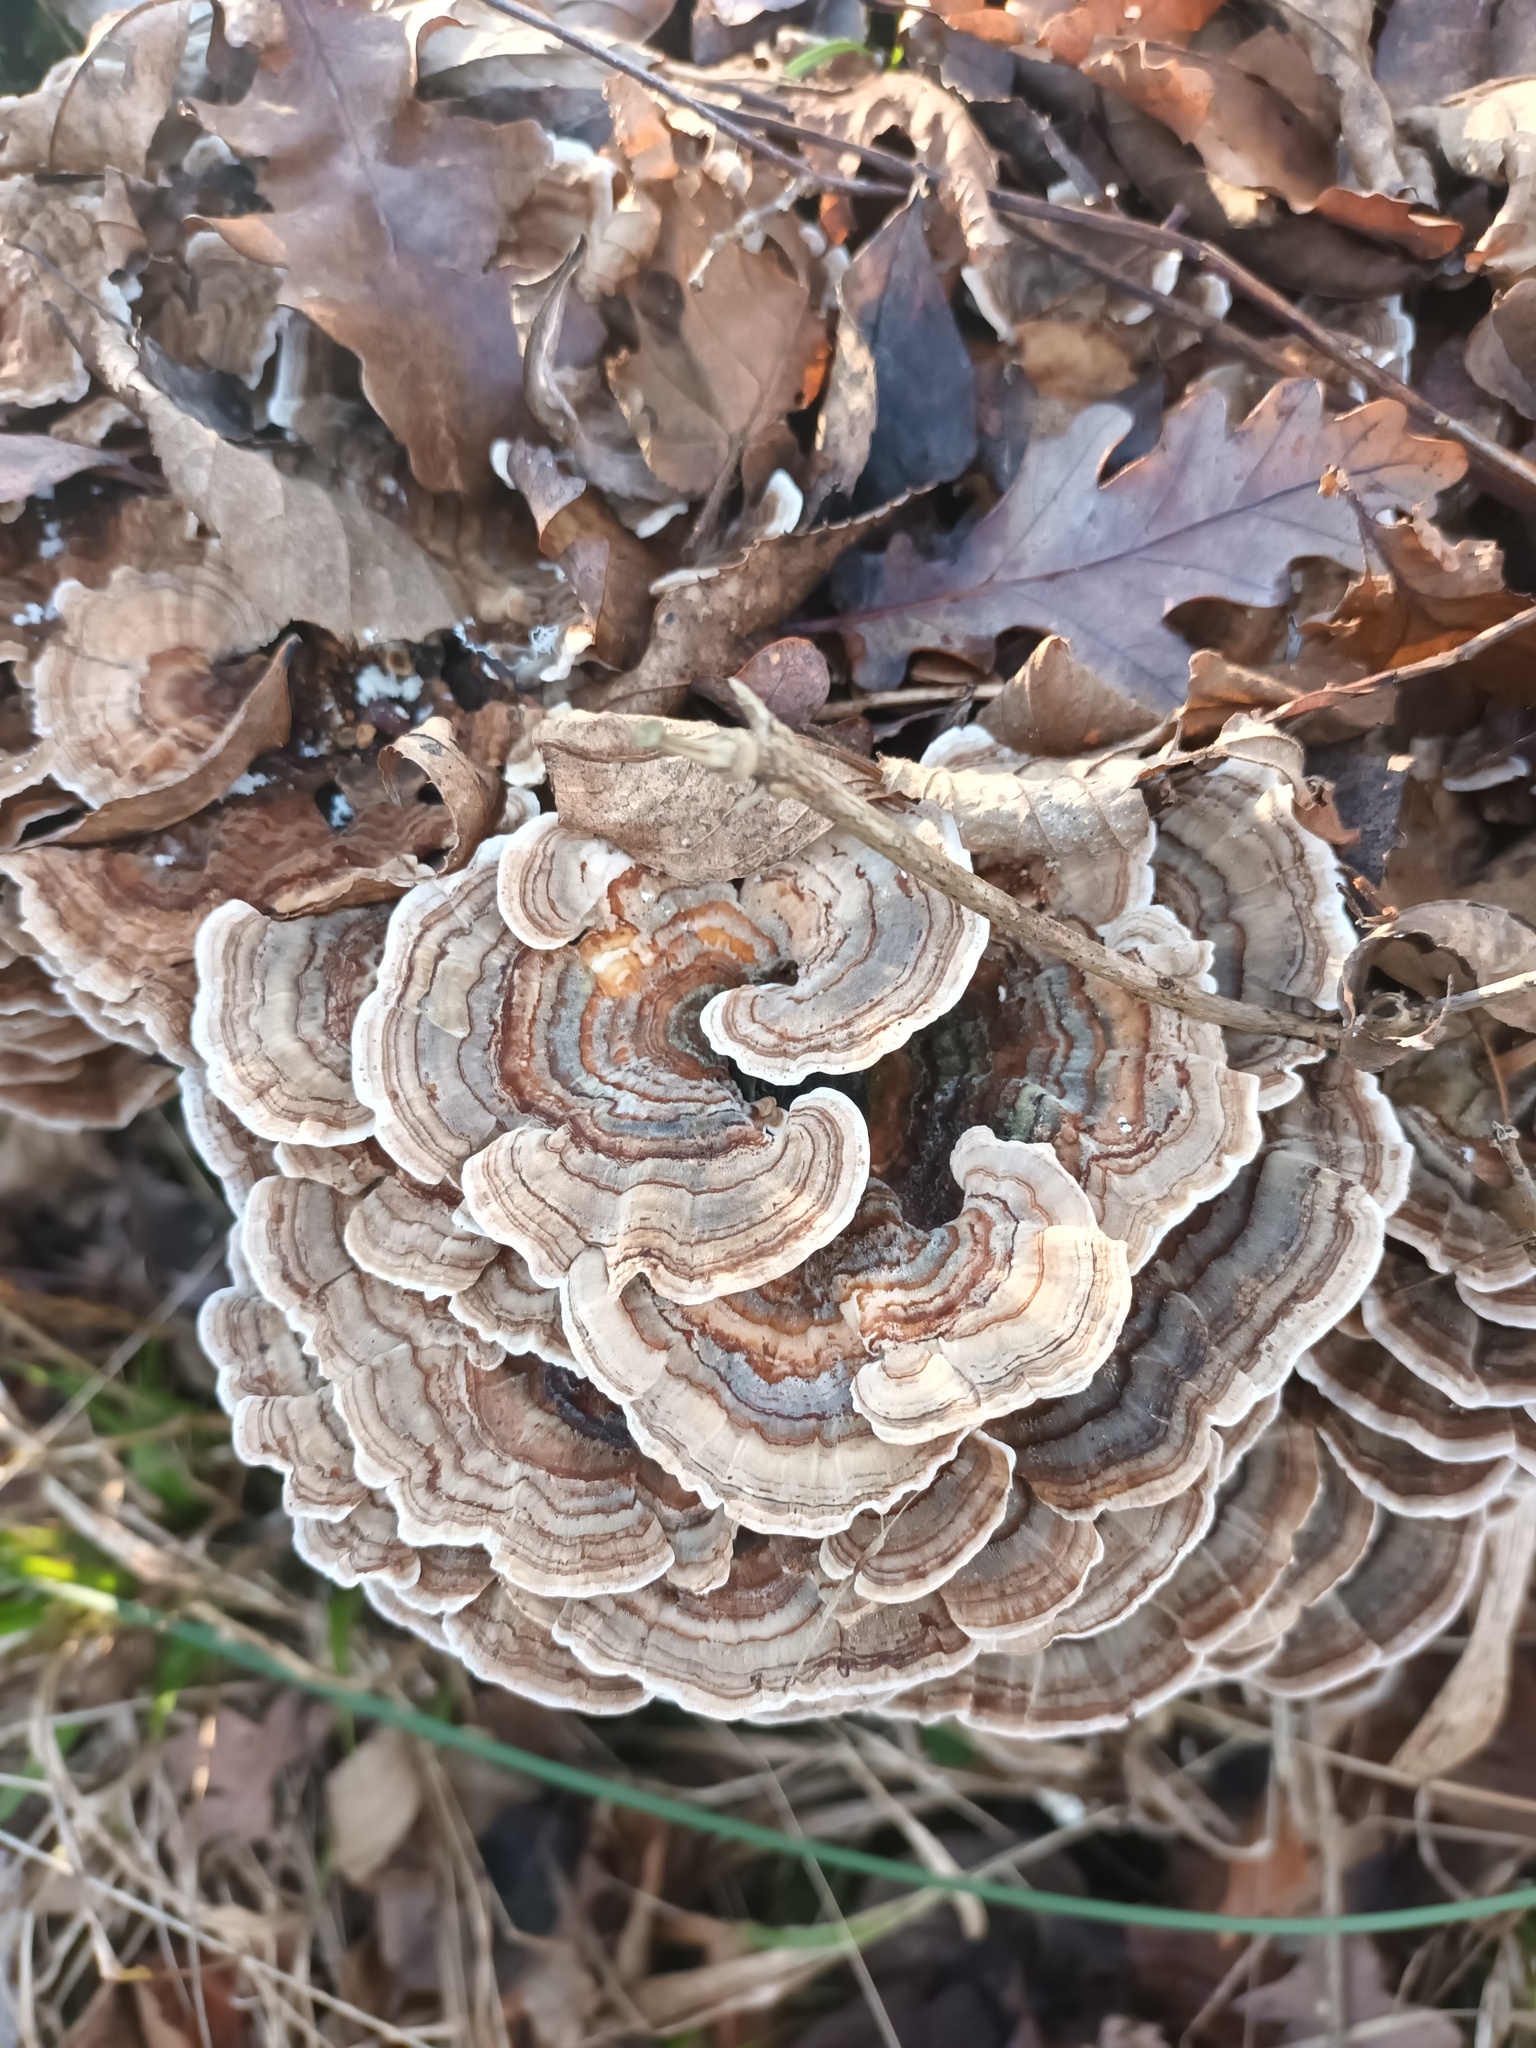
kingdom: Fungi
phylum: Basidiomycota
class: Agaricomycetes
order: Polyporales
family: Polyporaceae
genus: Trametes
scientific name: Trametes versicolor
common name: Turkeytail
